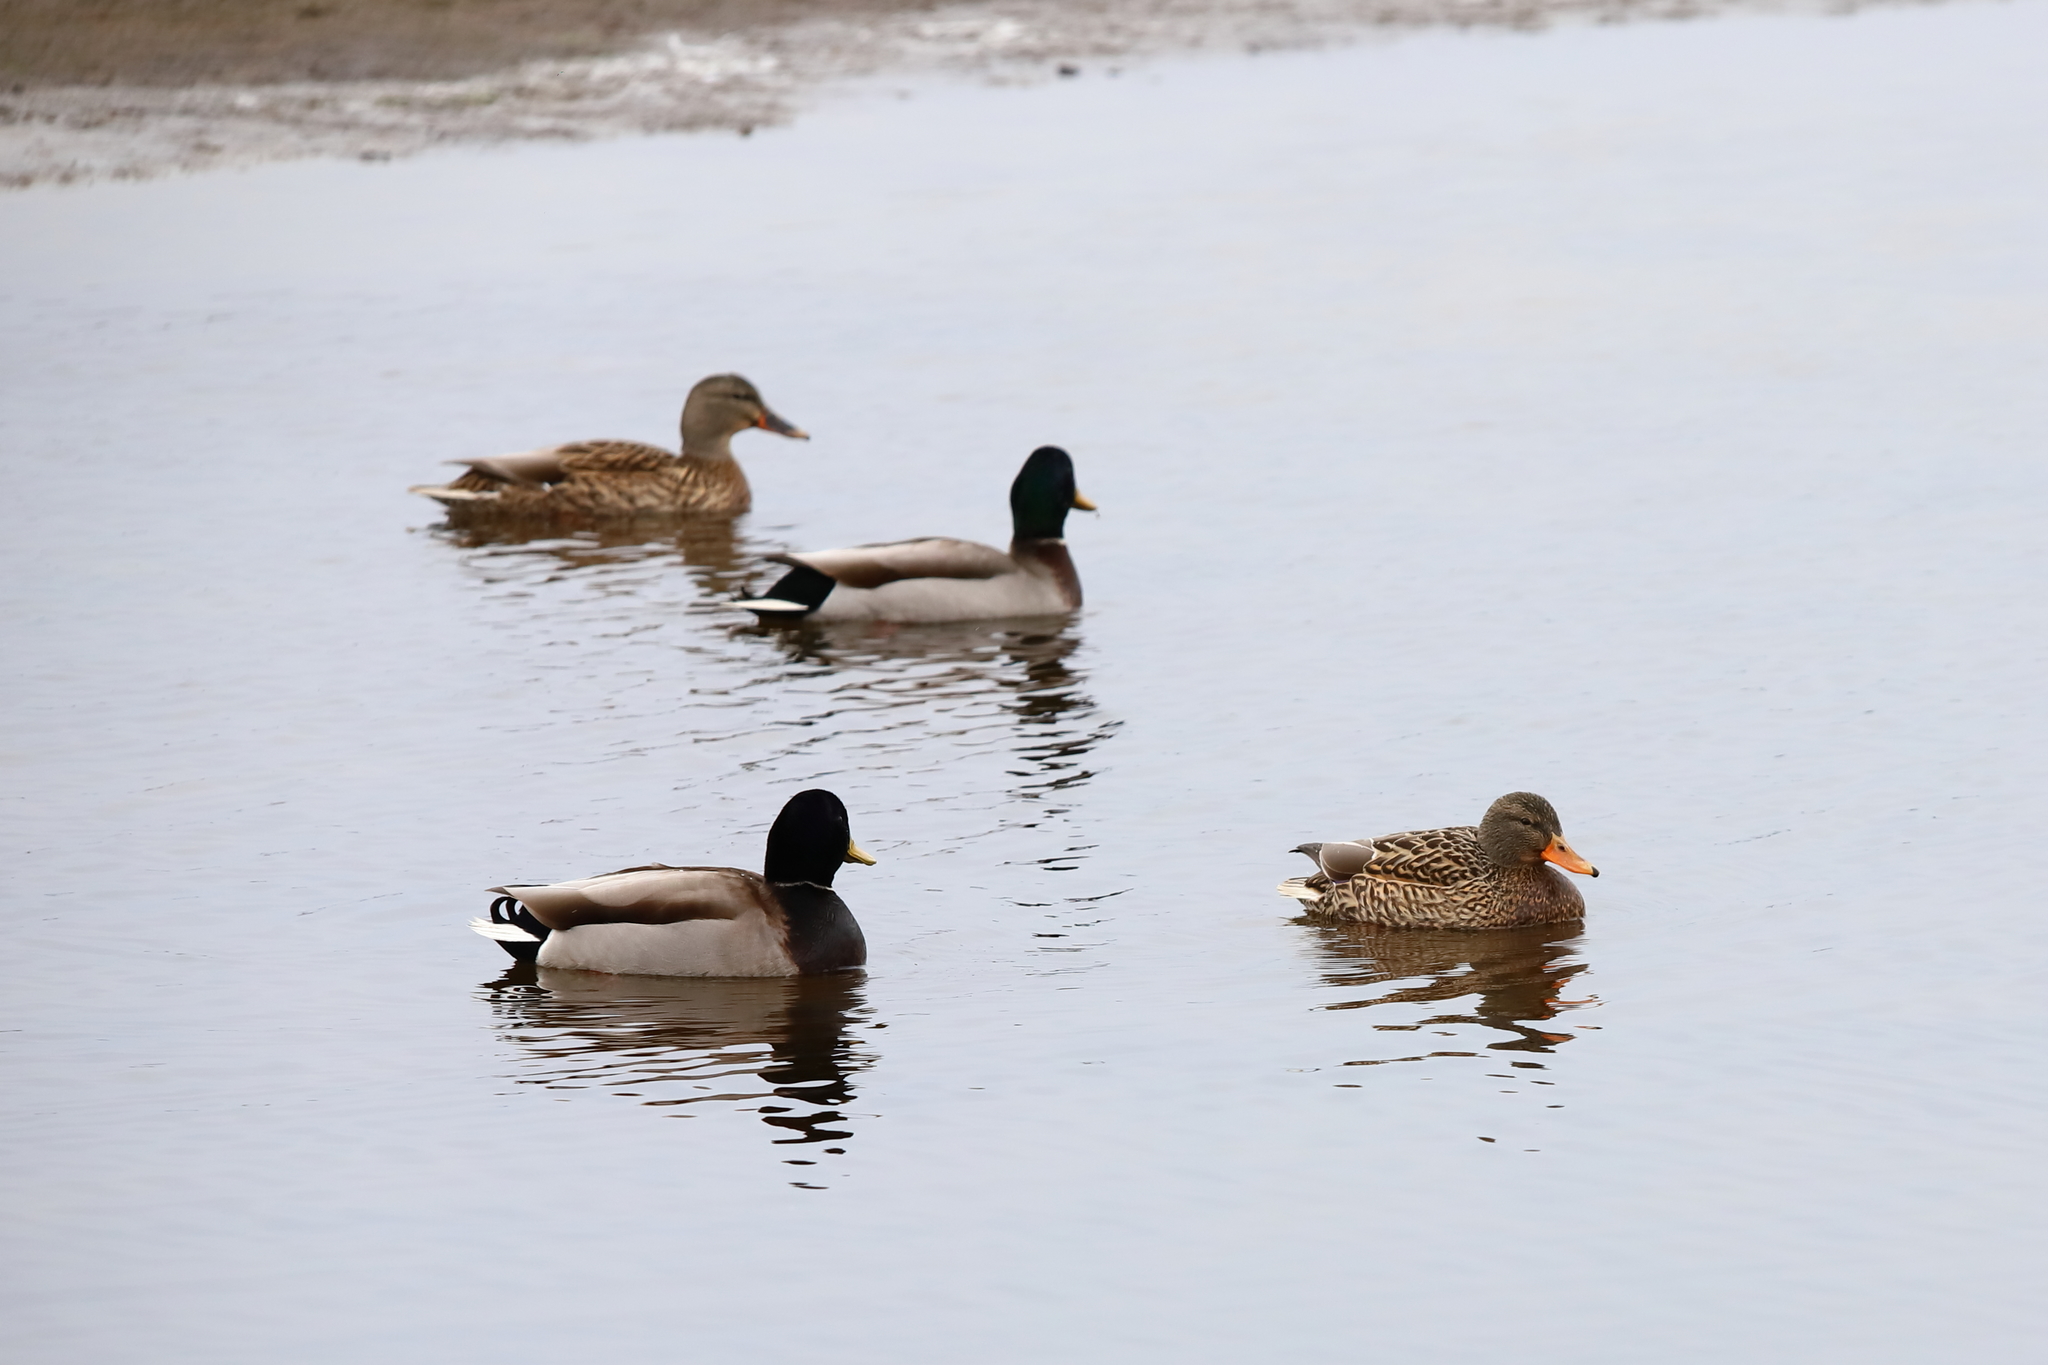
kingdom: Animalia
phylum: Chordata
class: Aves
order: Anseriformes
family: Anatidae
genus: Anas
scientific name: Anas platyrhynchos
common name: Mallard
